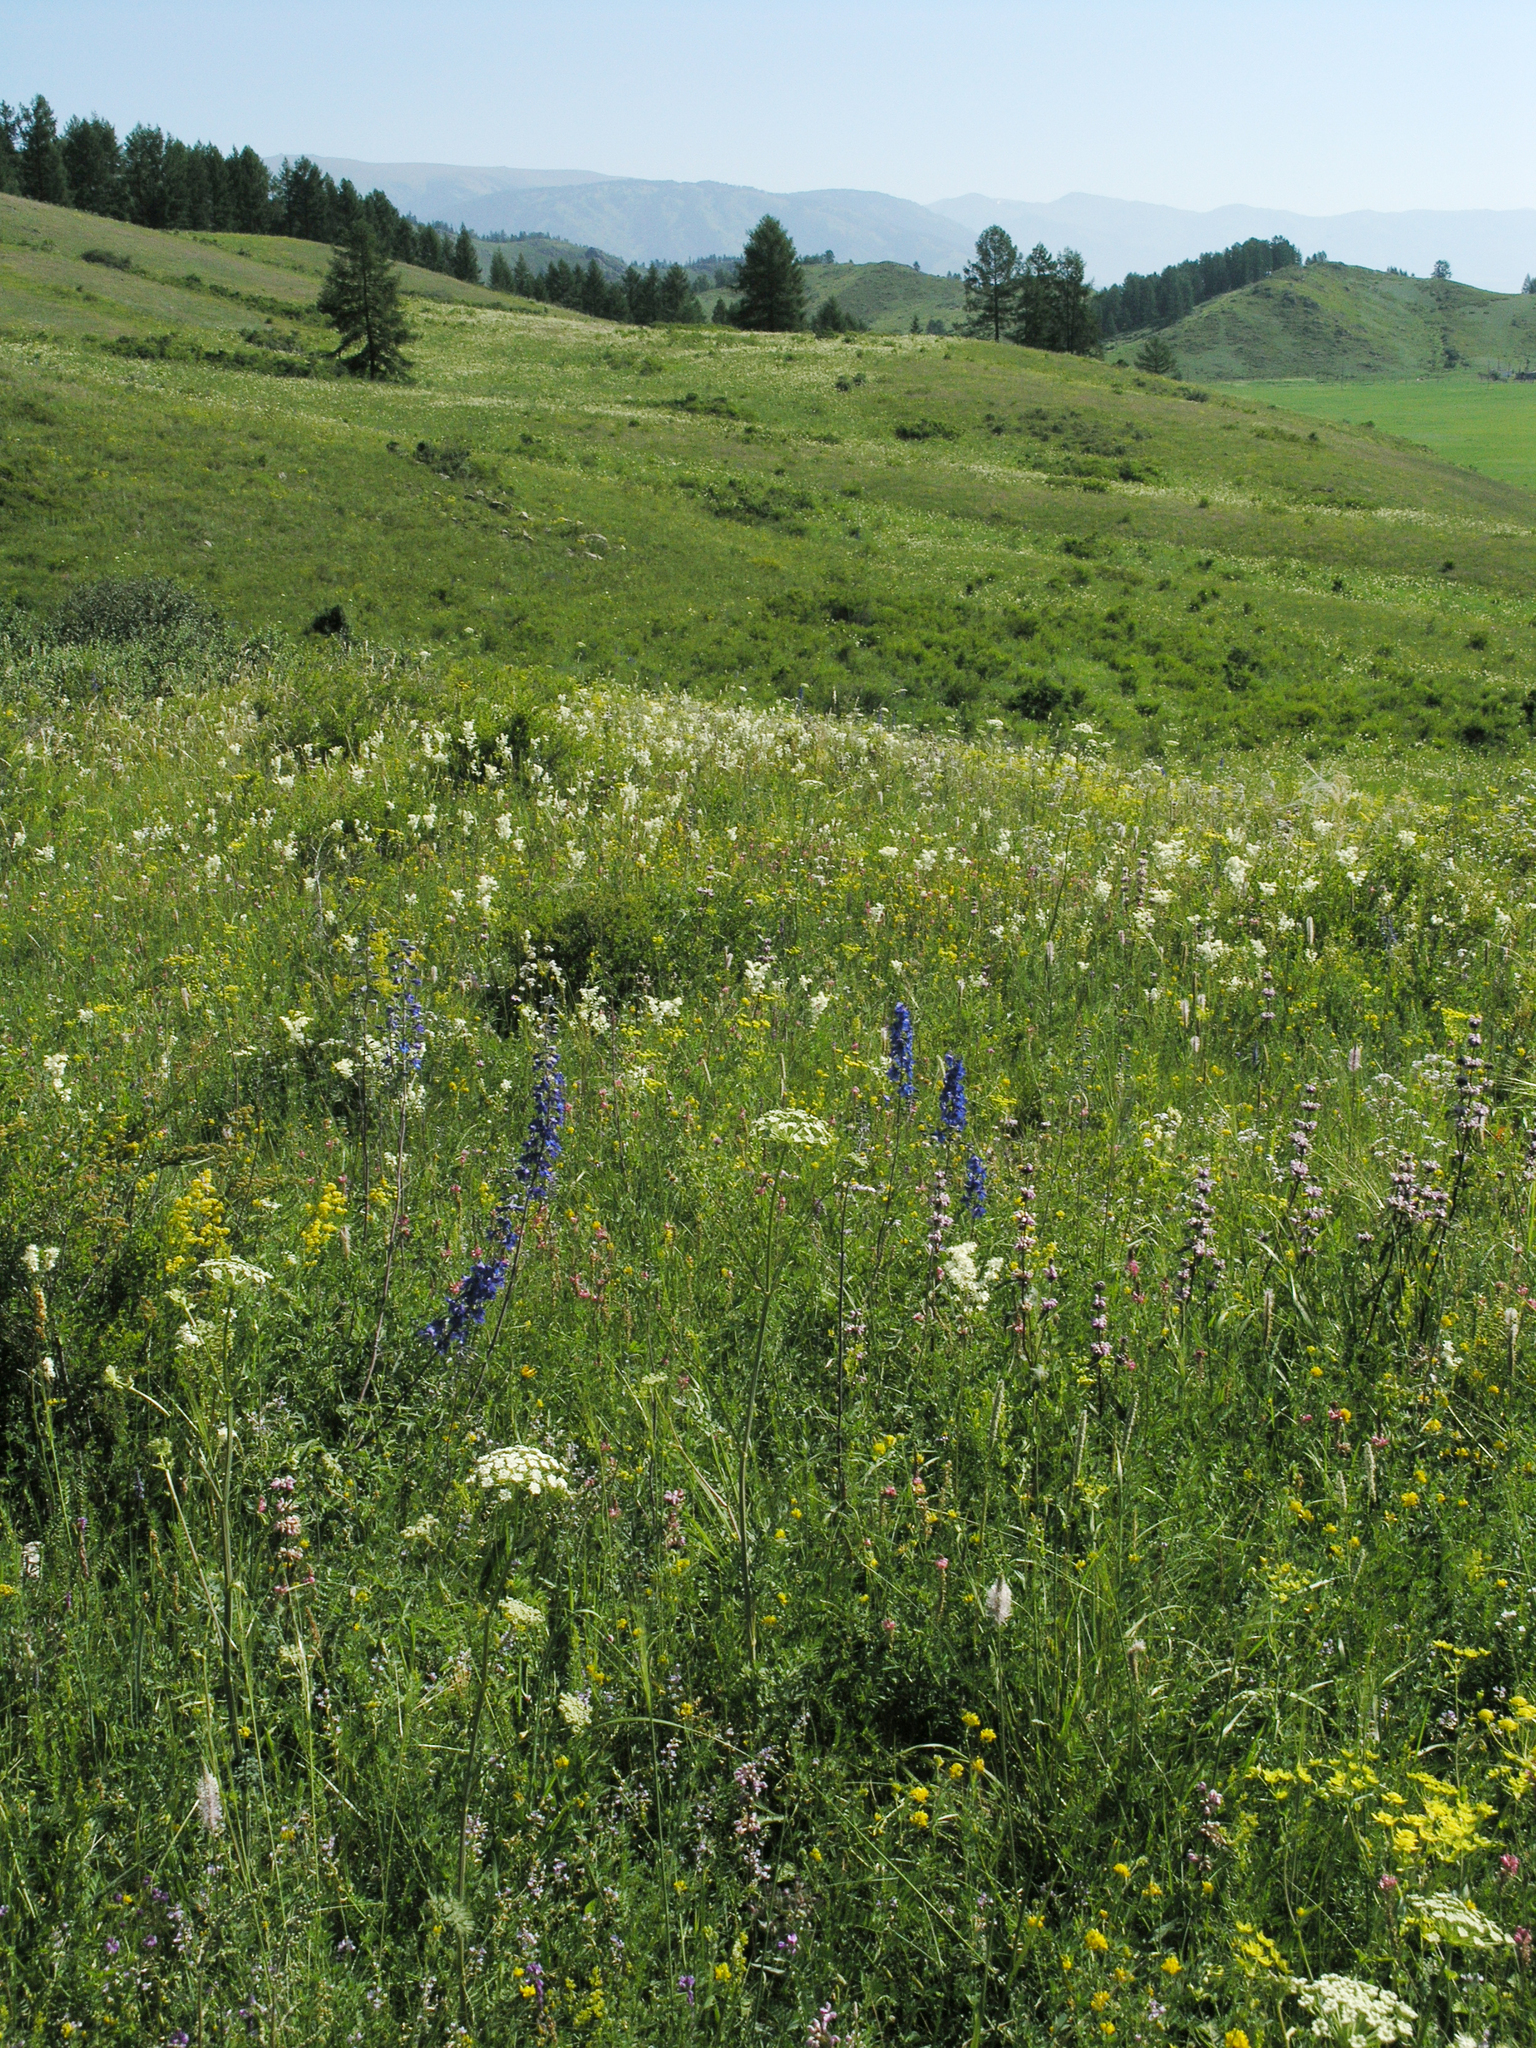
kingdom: Plantae
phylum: Tracheophyta
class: Magnoliopsida
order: Lamiales
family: Lamiaceae
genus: Phlomoides
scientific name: Phlomoides tuberosa
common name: Tuberous jerusalem sage
